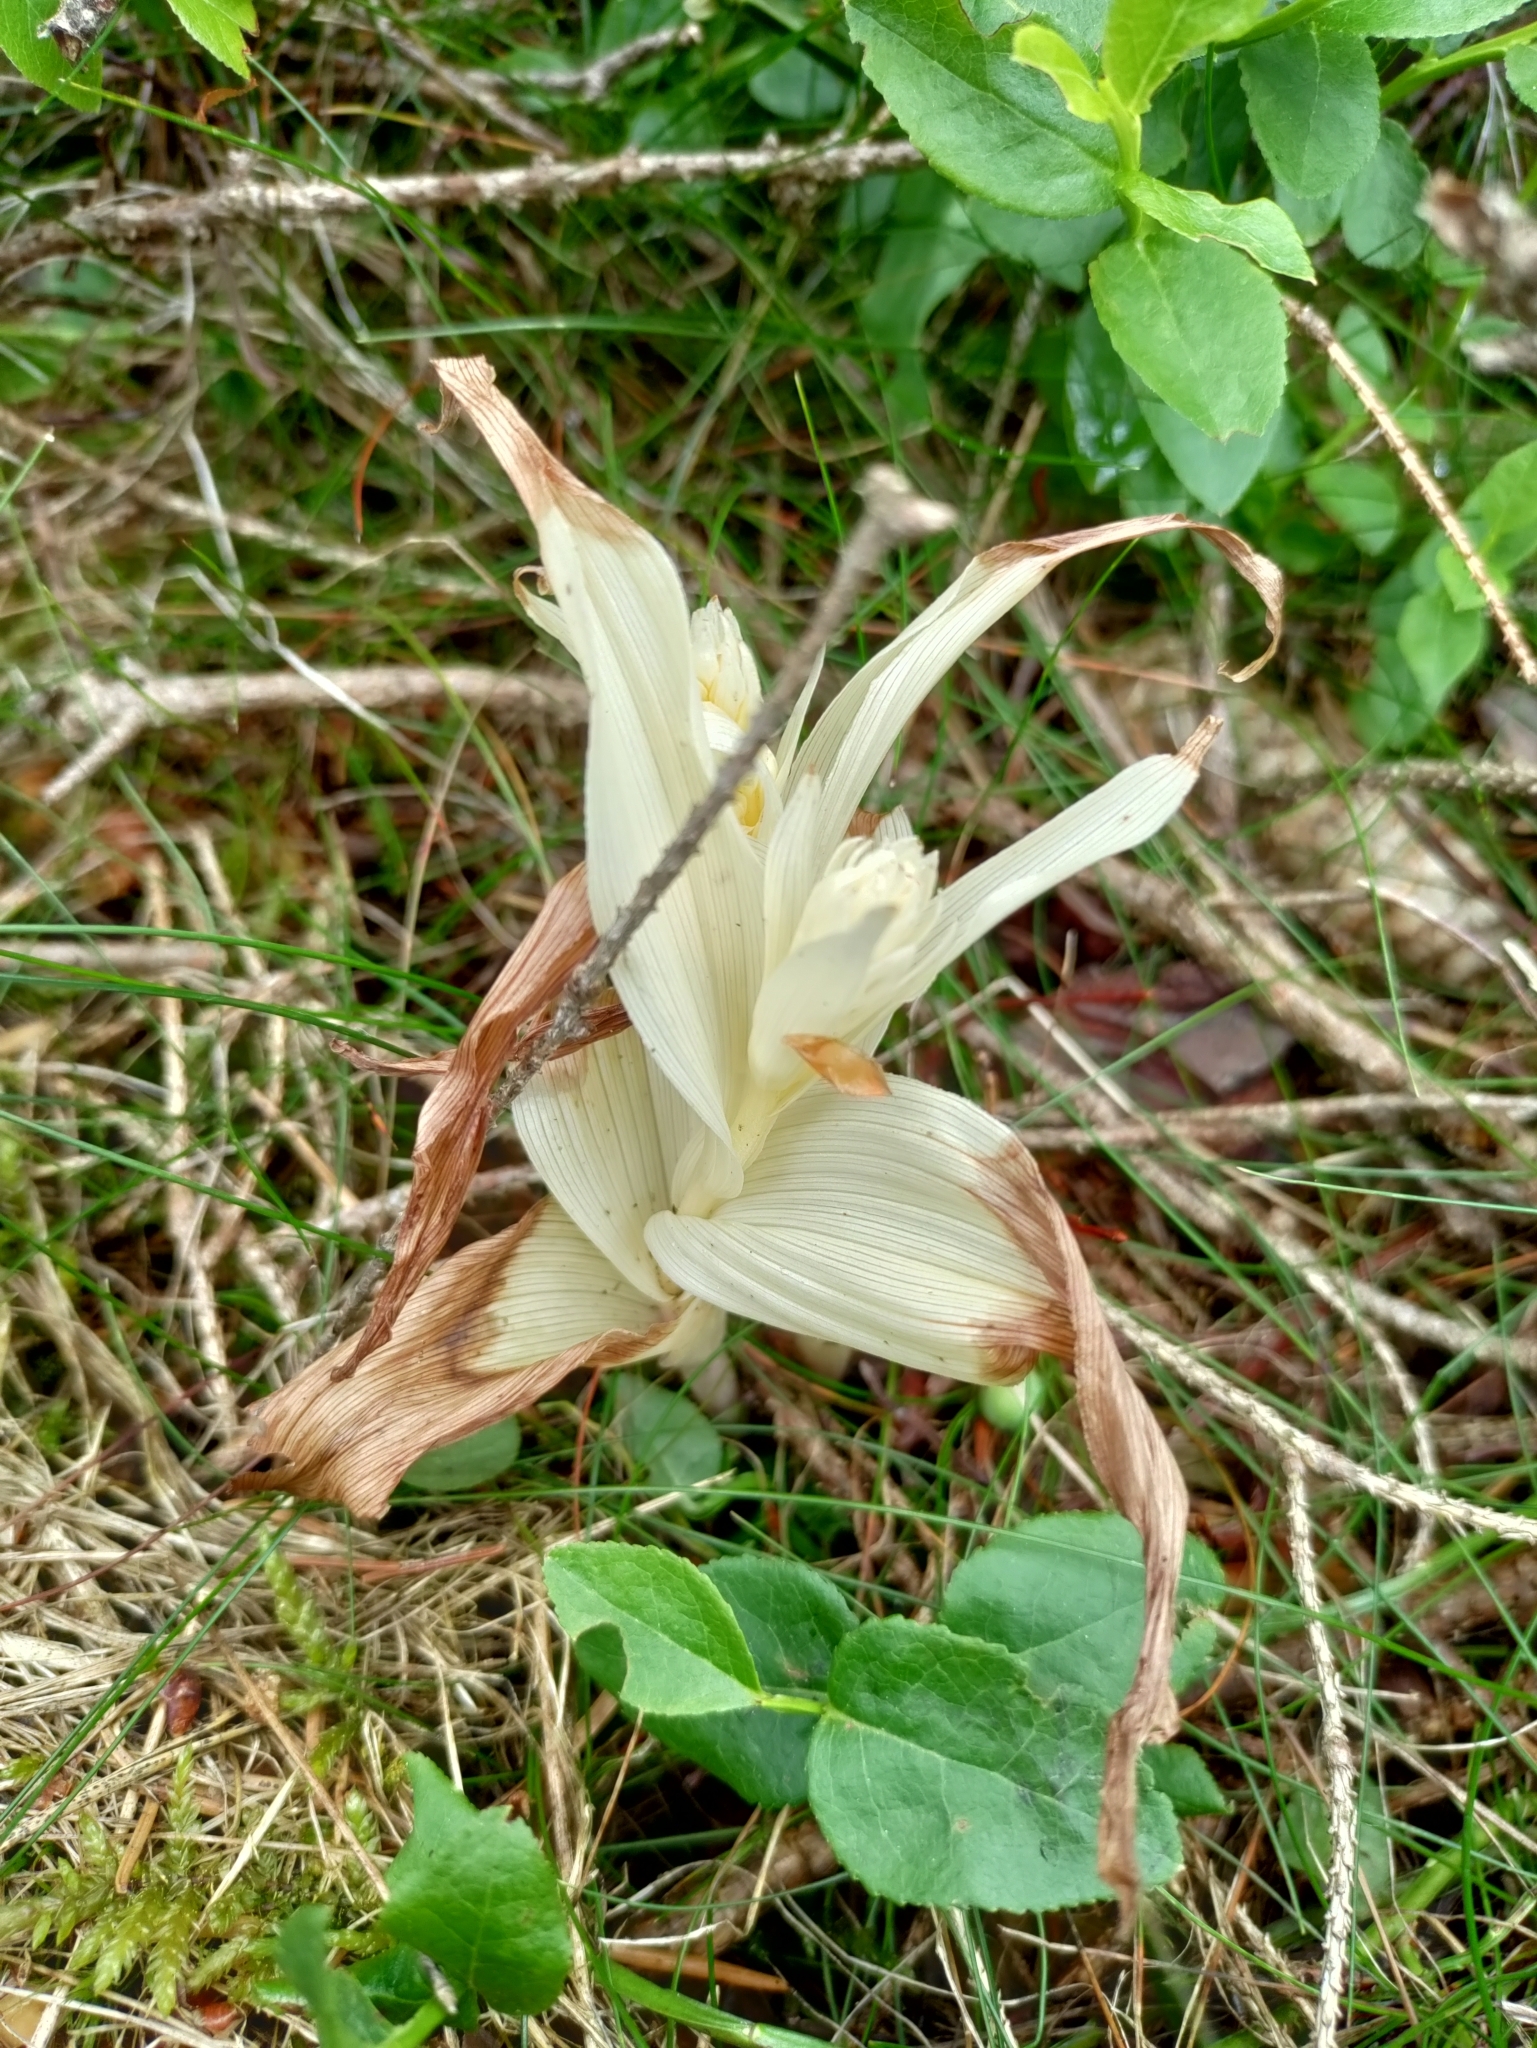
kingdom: Plantae
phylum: Tracheophyta
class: Liliopsida
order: Asparagales
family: Orchidaceae
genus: Epipactis
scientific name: Epipactis helleborine
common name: Broad-leaved helleborine
